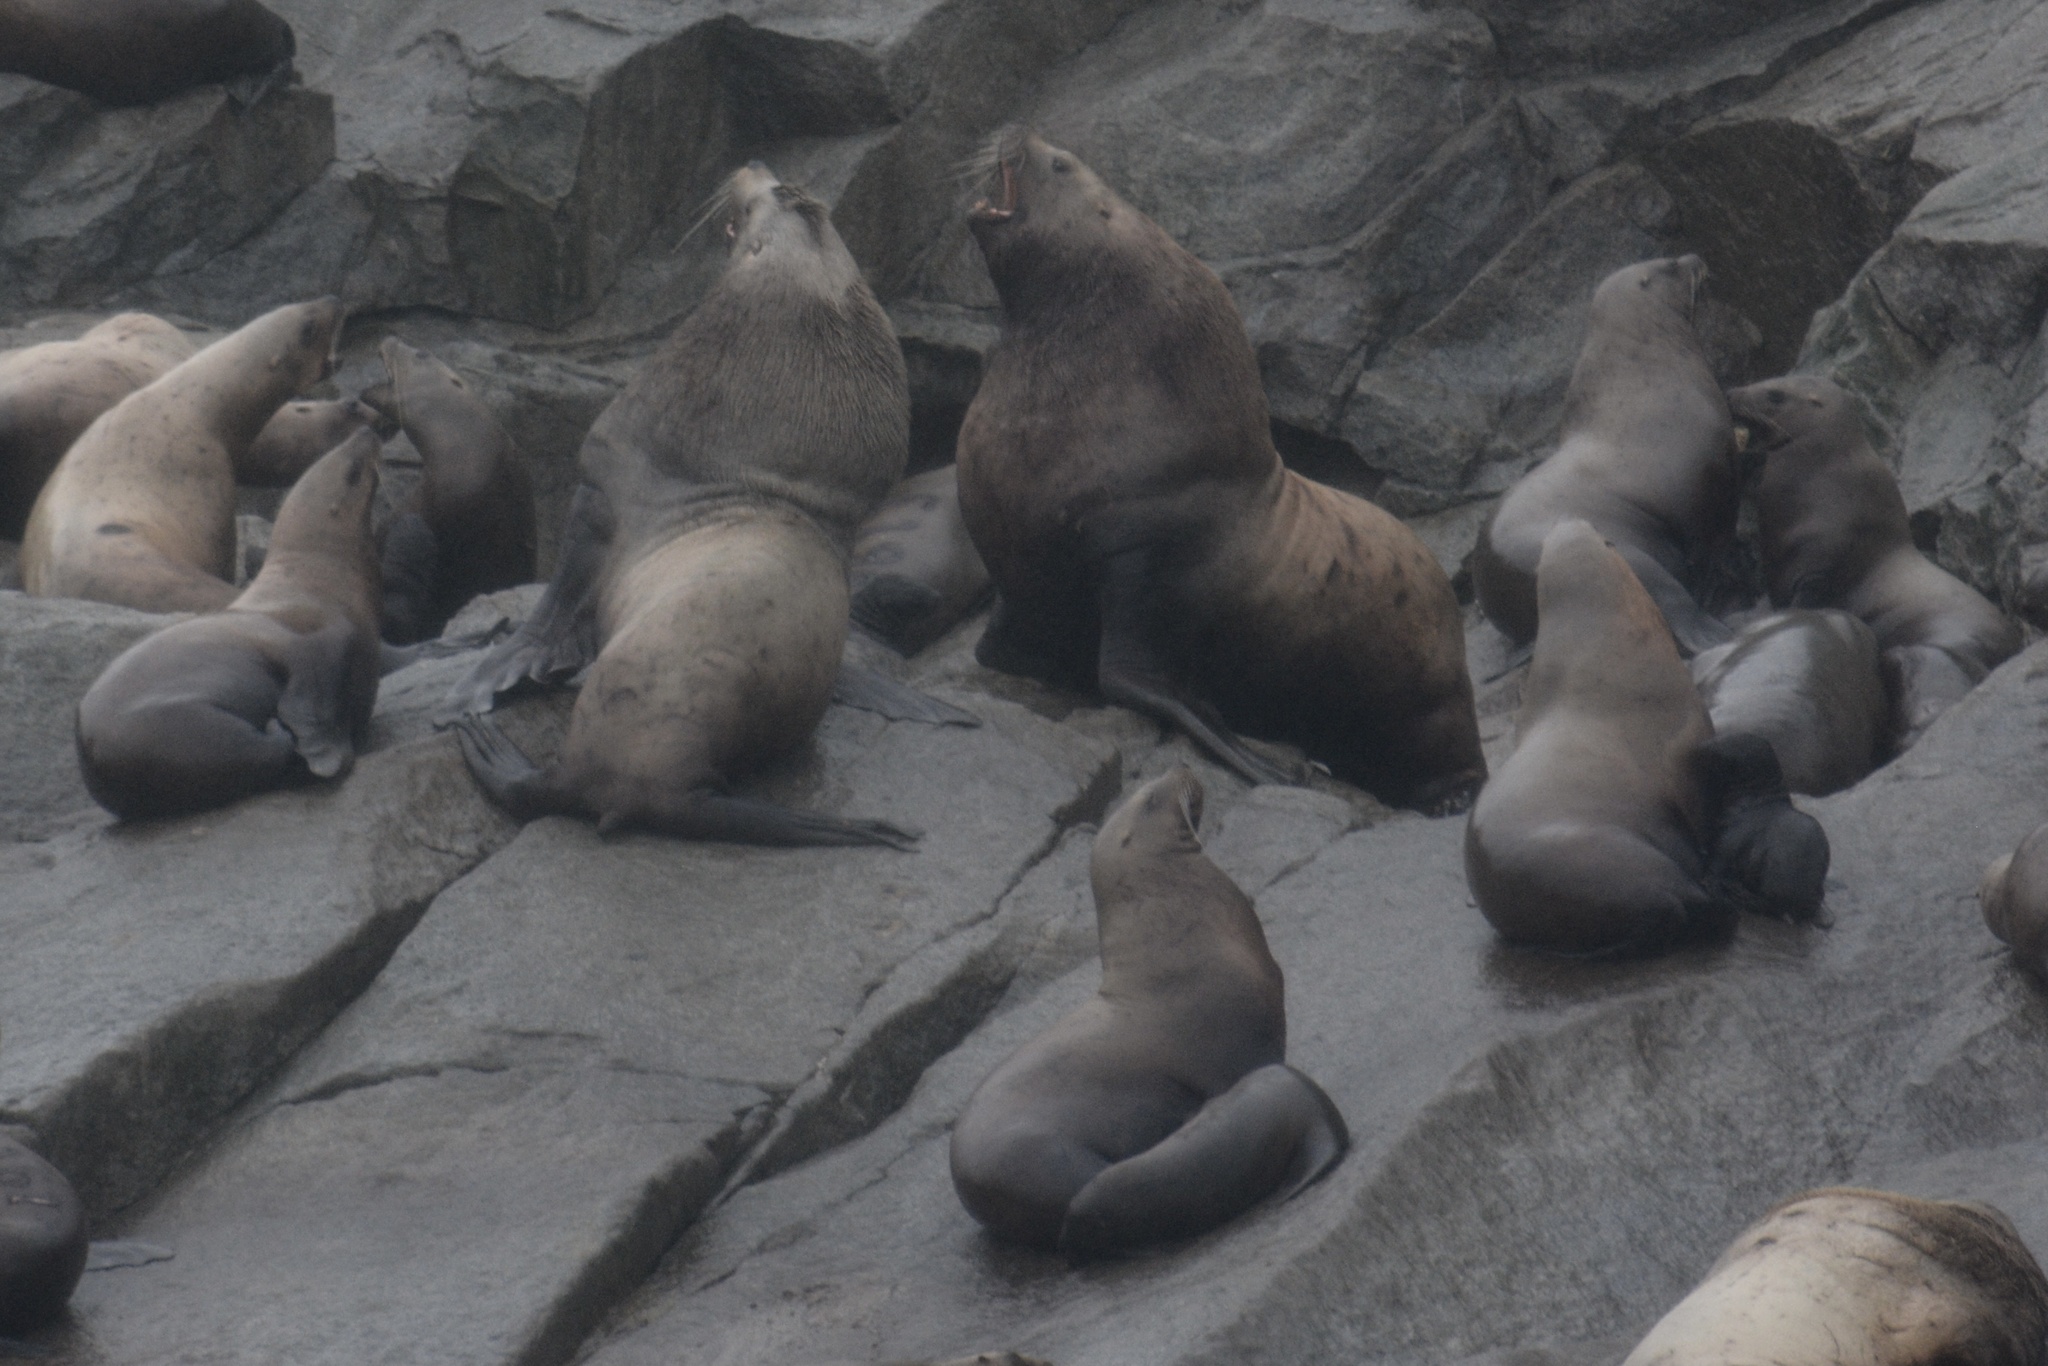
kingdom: Animalia
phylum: Chordata
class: Mammalia
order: Carnivora
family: Otariidae
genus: Eumetopias
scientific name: Eumetopias jubatus
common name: Steller sea lion
